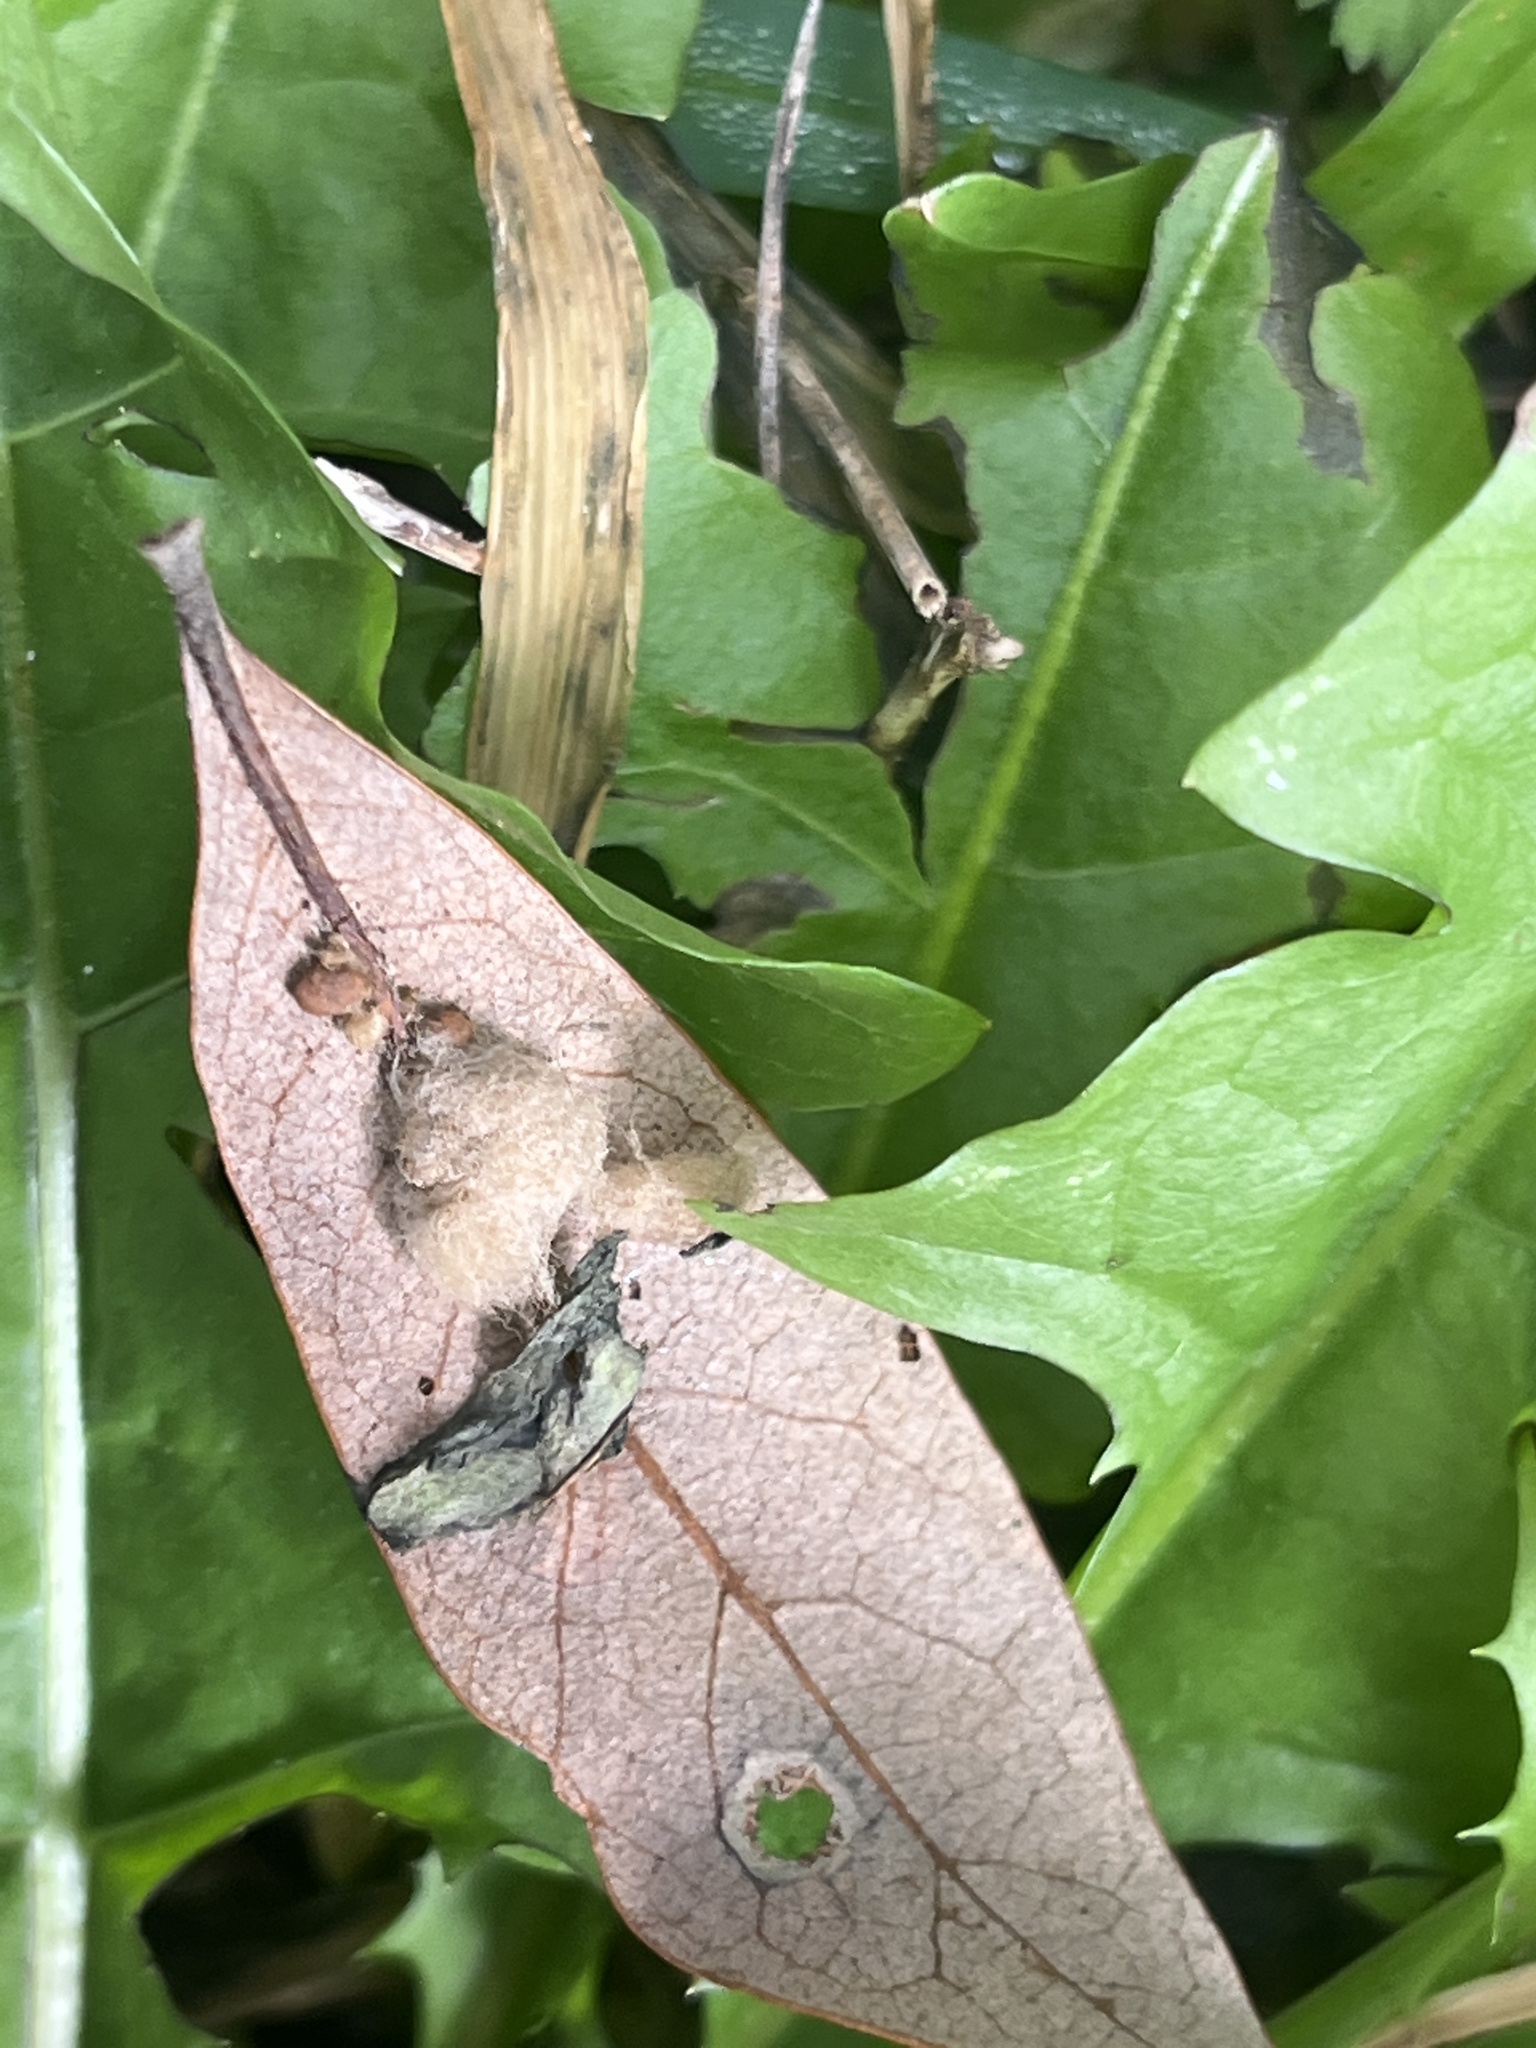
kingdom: Animalia
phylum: Arthropoda
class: Insecta
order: Hymenoptera
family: Cynipidae
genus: Andricus
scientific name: Andricus Druon quercuslanigerum
